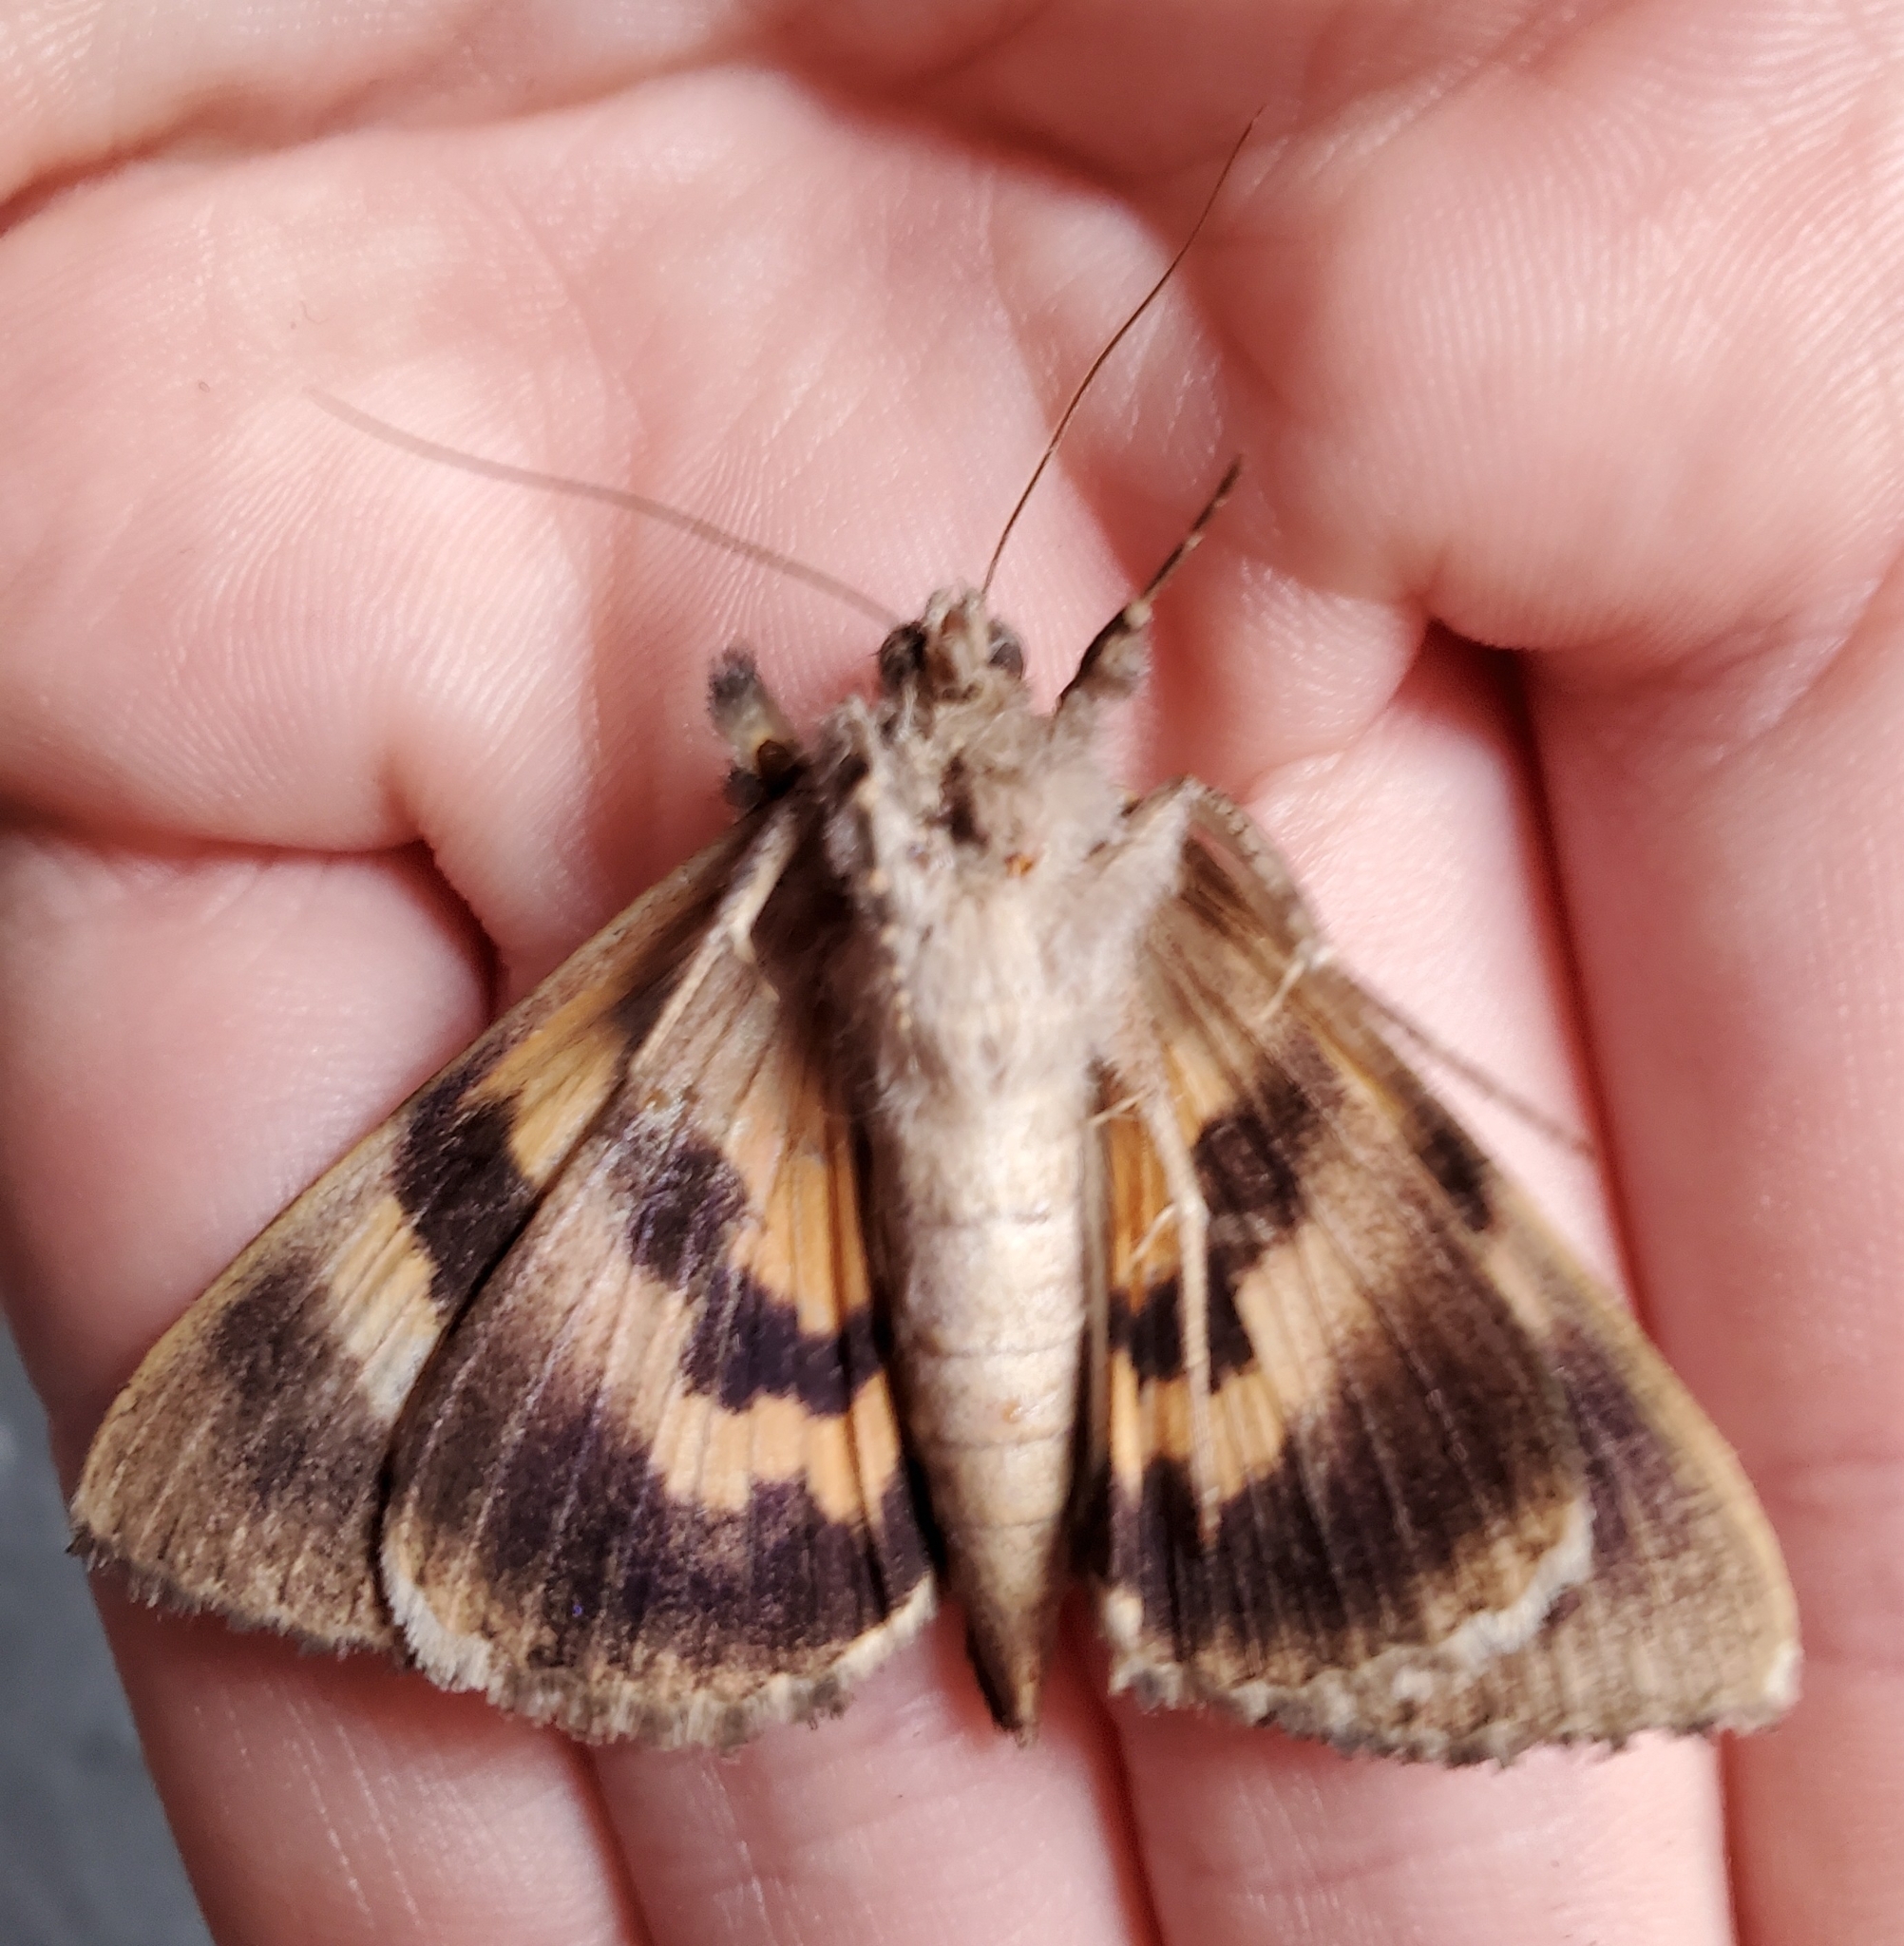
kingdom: Animalia
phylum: Arthropoda
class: Insecta
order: Lepidoptera
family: Erebidae
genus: Catocala
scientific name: Catocala muliercula
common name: The little wife underwing
